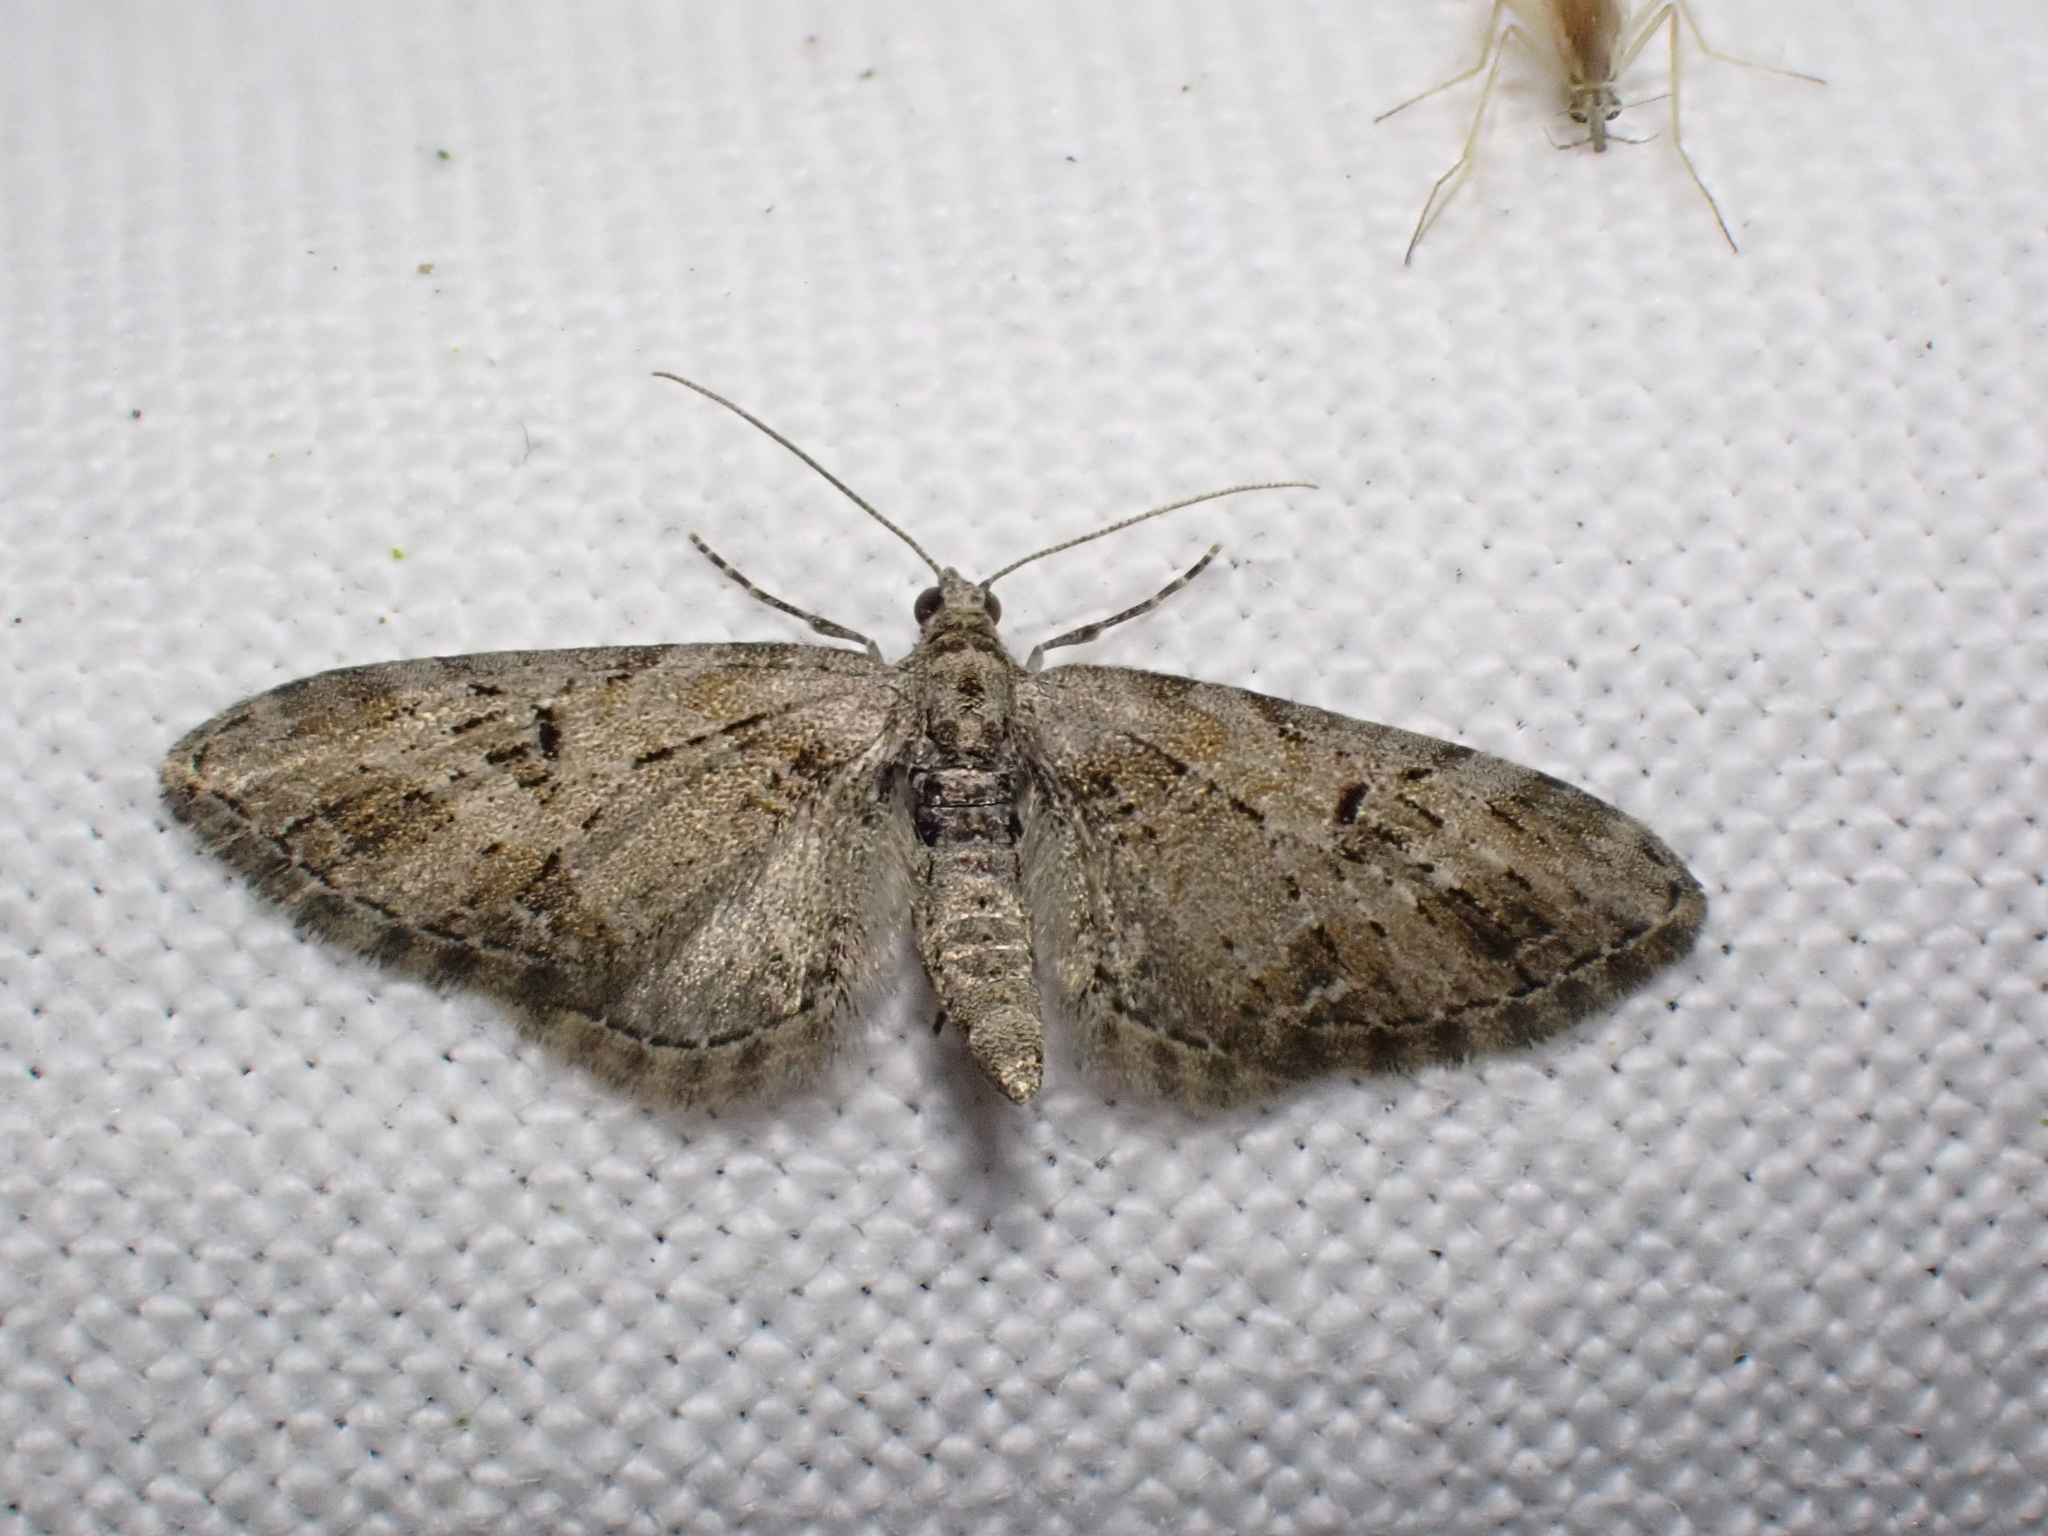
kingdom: Animalia
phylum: Arthropoda
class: Insecta
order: Lepidoptera
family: Geometridae
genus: Eupithecia
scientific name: Eupithecia exiguata
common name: Mottled pug
